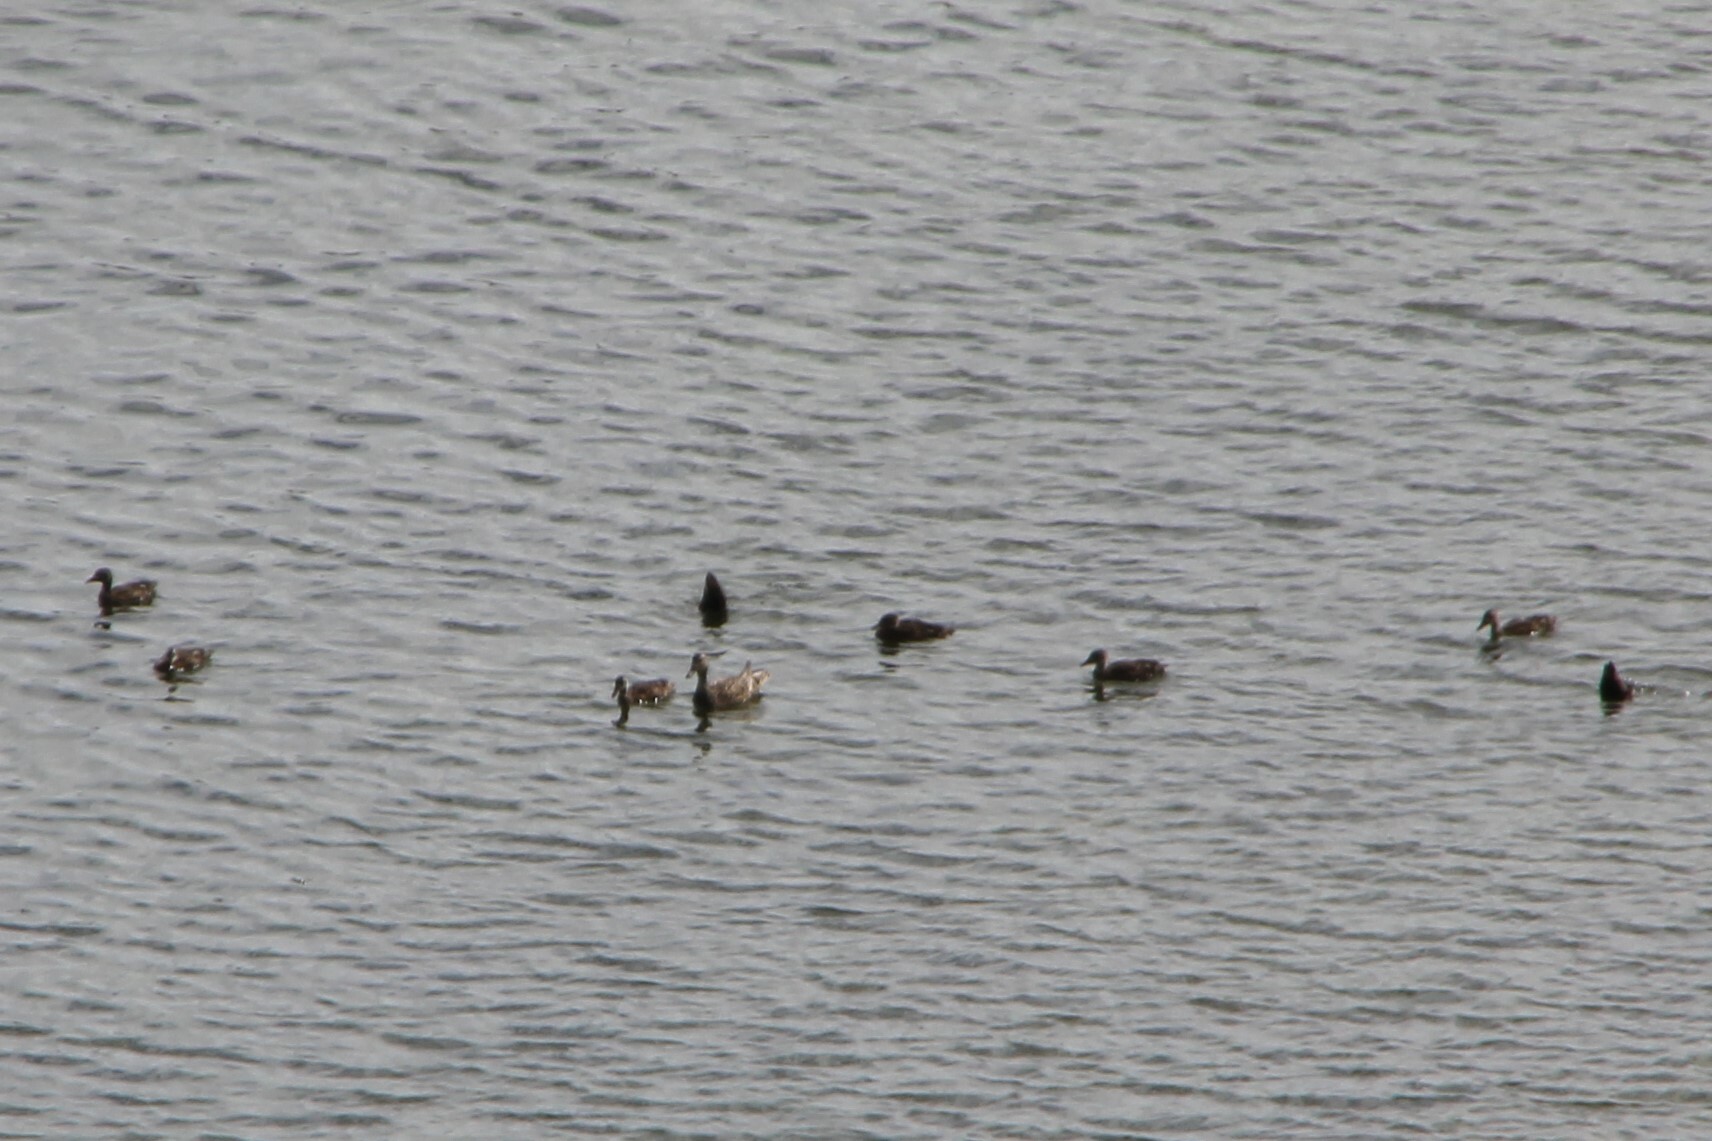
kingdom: Animalia
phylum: Chordata
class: Aves
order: Anseriformes
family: Anatidae
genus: Anas
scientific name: Anas platyrhynchos
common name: Mallard
